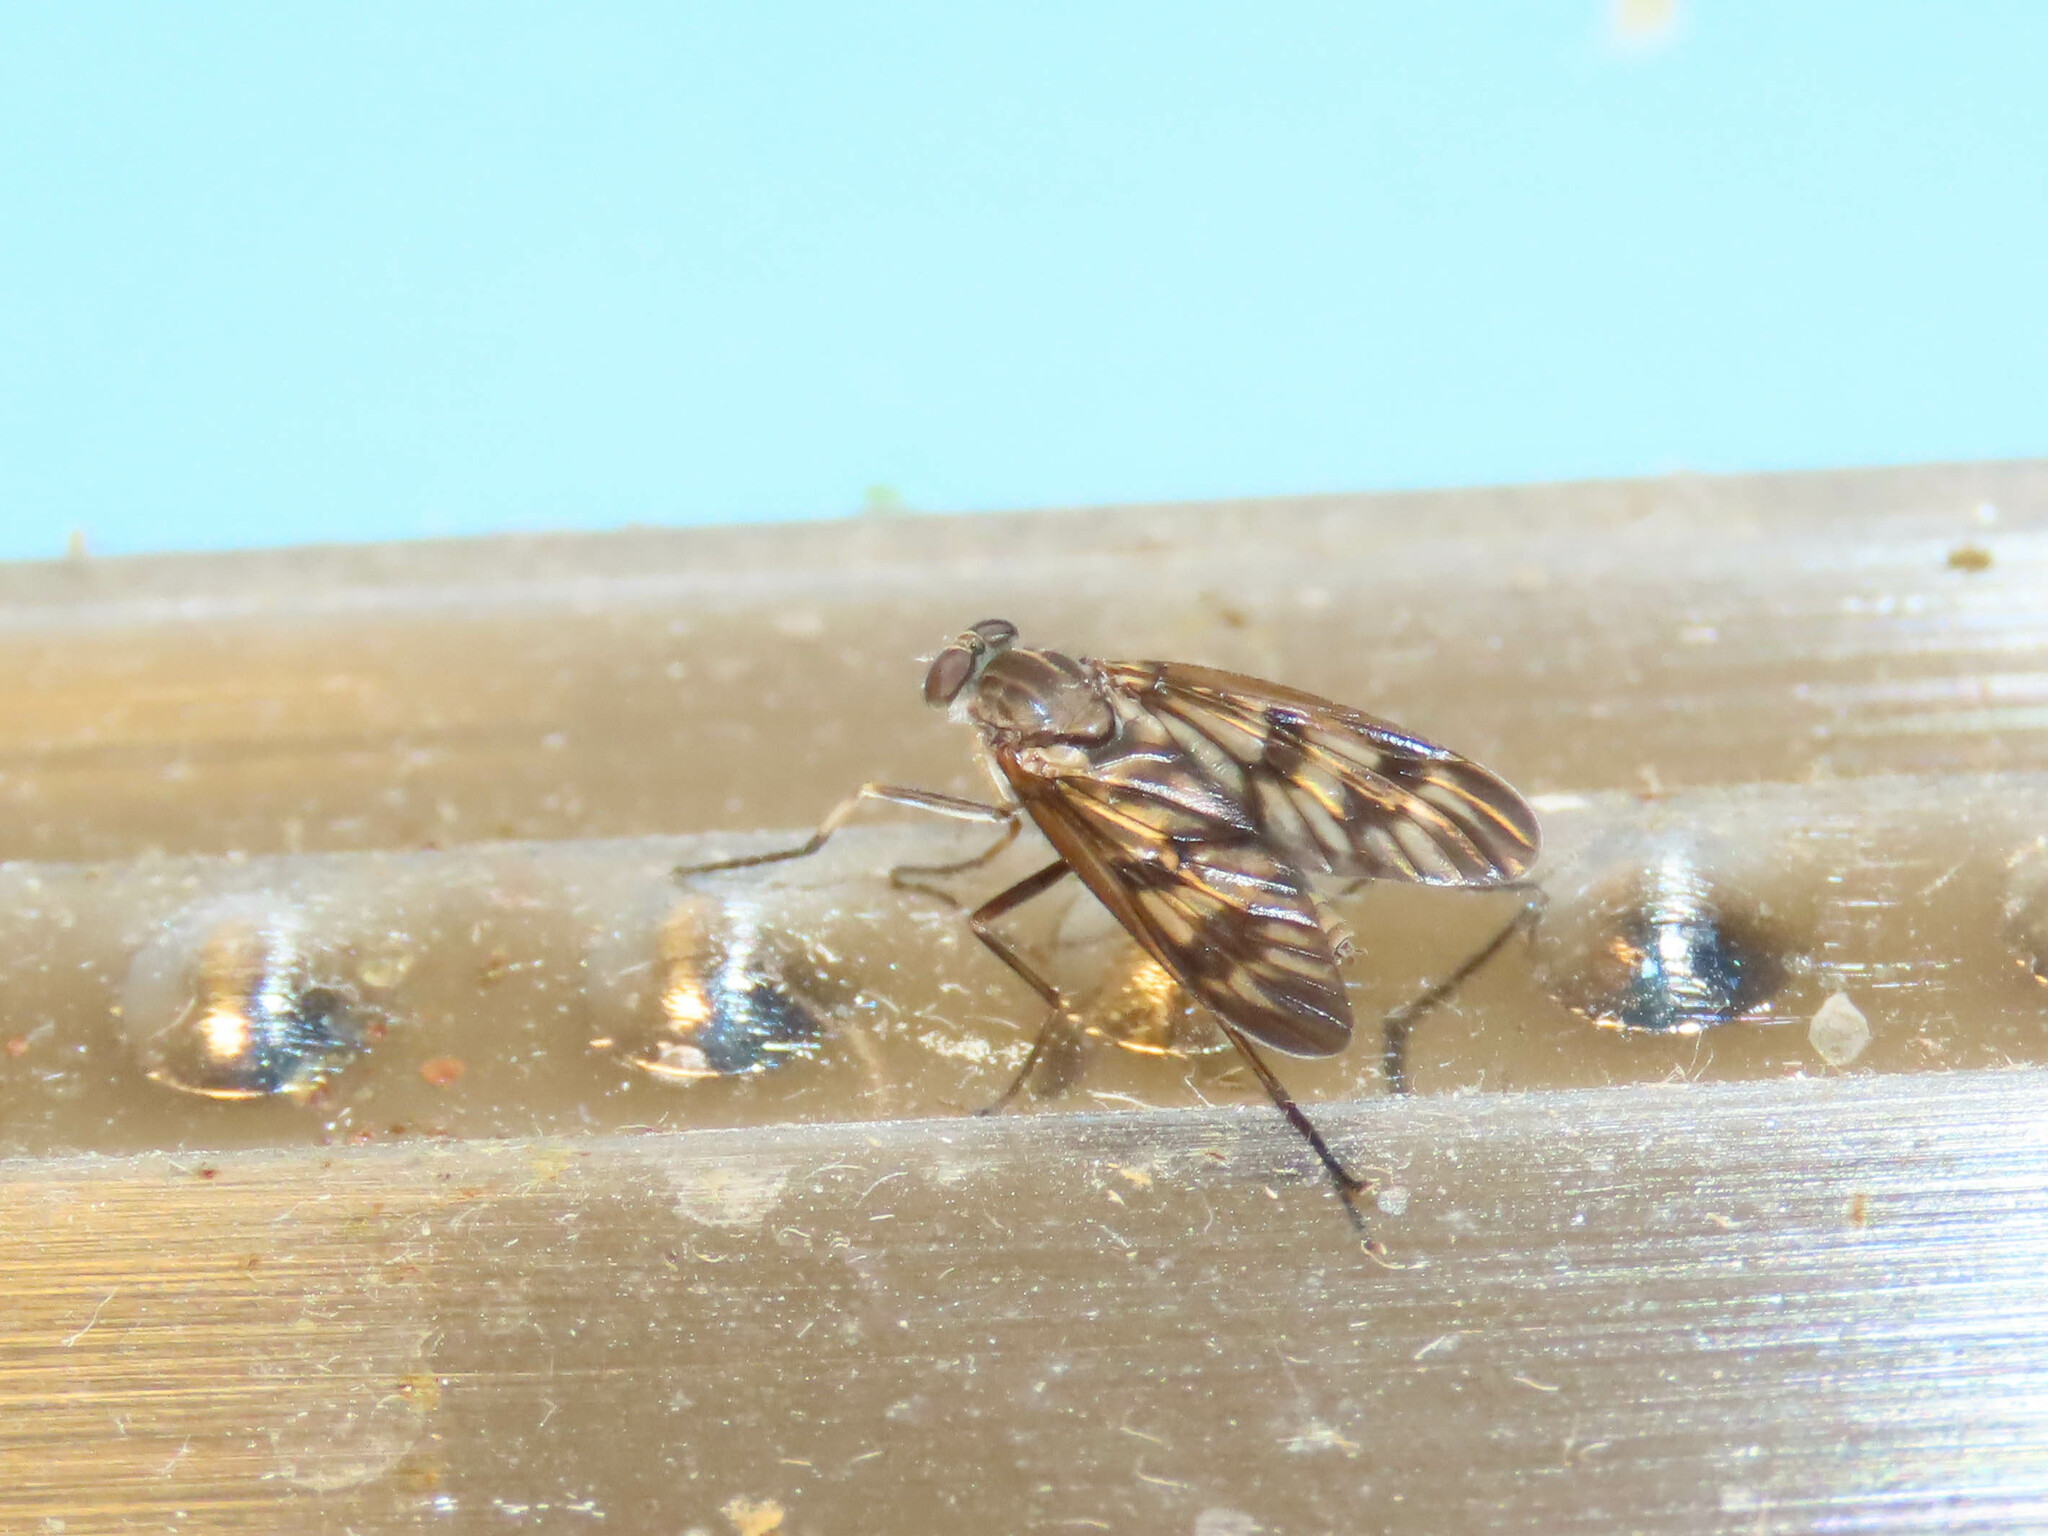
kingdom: Animalia
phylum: Arthropoda
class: Insecta
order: Diptera
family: Rhagionidae
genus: Rhagio
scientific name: Rhagio mystaceus
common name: Common snipe fly
